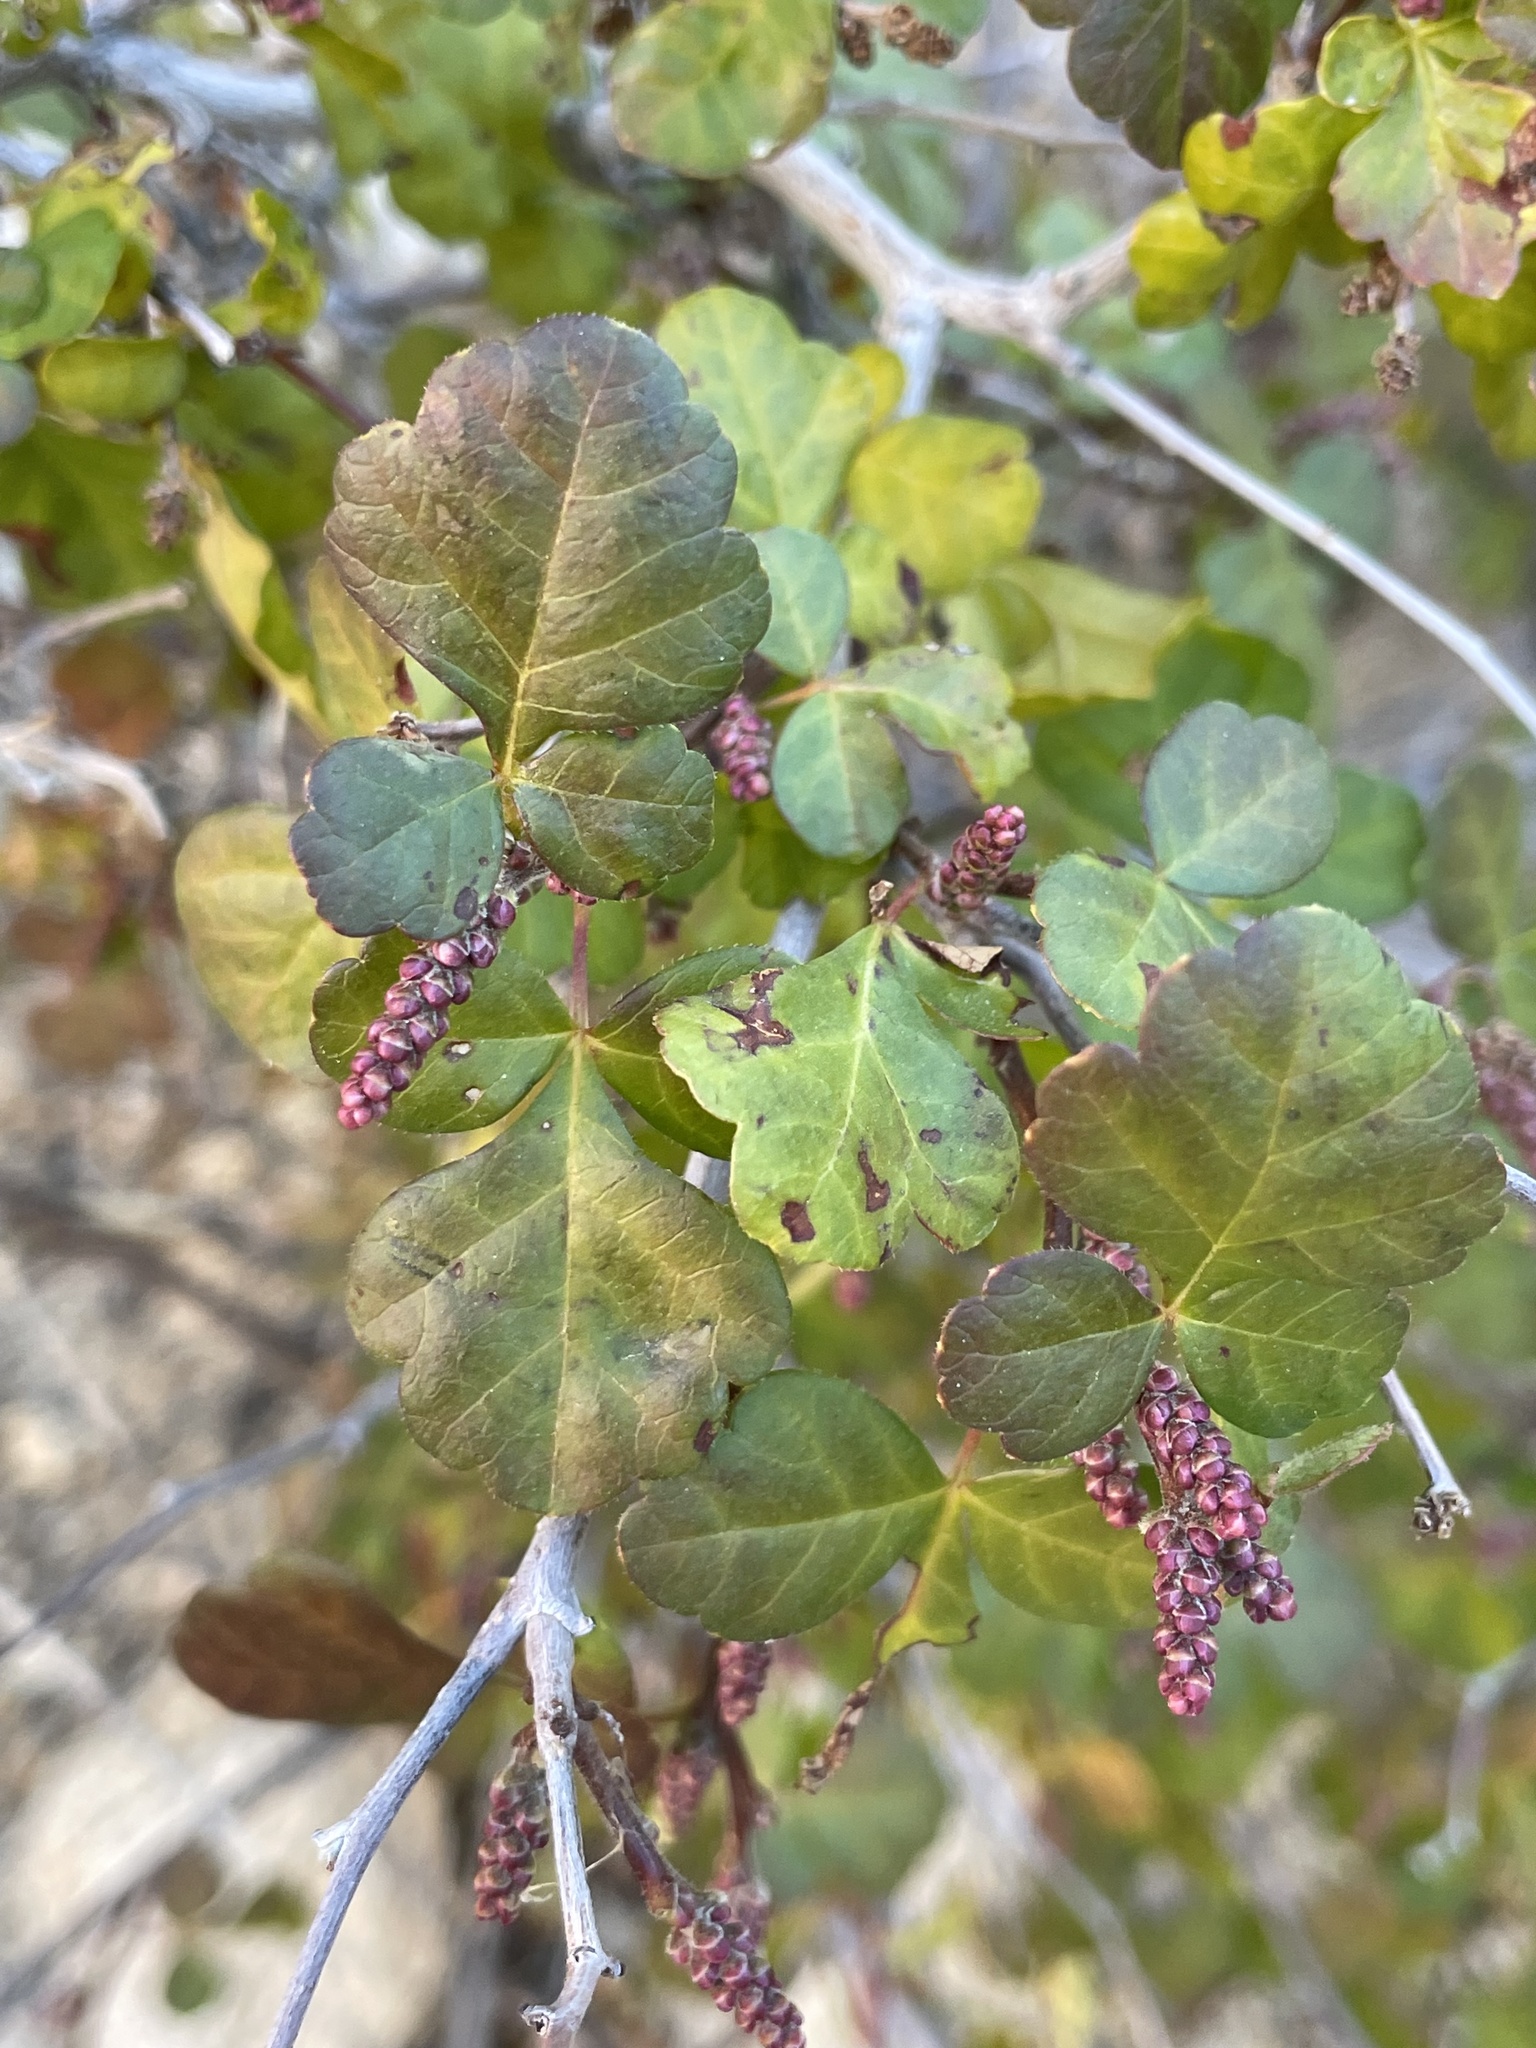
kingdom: Plantae
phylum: Tracheophyta
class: Magnoliopsida
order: Sapindales
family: Anacardiaceae
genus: Rhus
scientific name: Rhus aromatica
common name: Aromatic sumac
